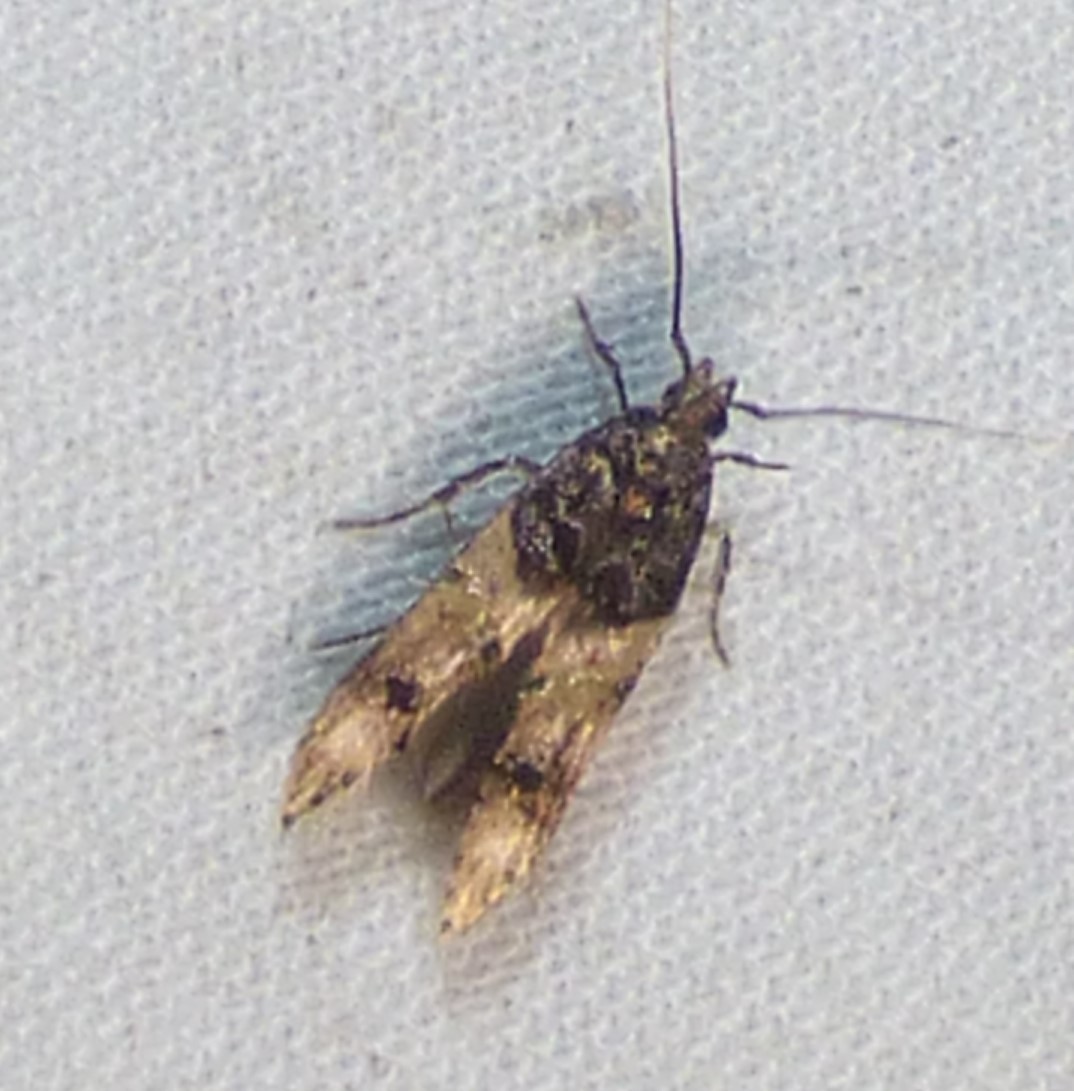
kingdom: Animalia
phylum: Arthropoda
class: Insecta
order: Lepidoptera
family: Cosmopterigidae
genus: Walshia
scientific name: Walshia miscecolorella
